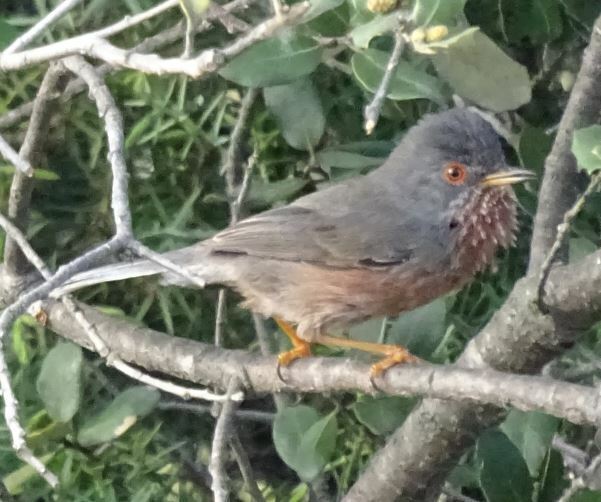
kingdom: Animalia
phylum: Chordata
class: Aves
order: Passeriformes
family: Sylviidae
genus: Sylvia
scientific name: Sylvia undata
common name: Dartford warbler
